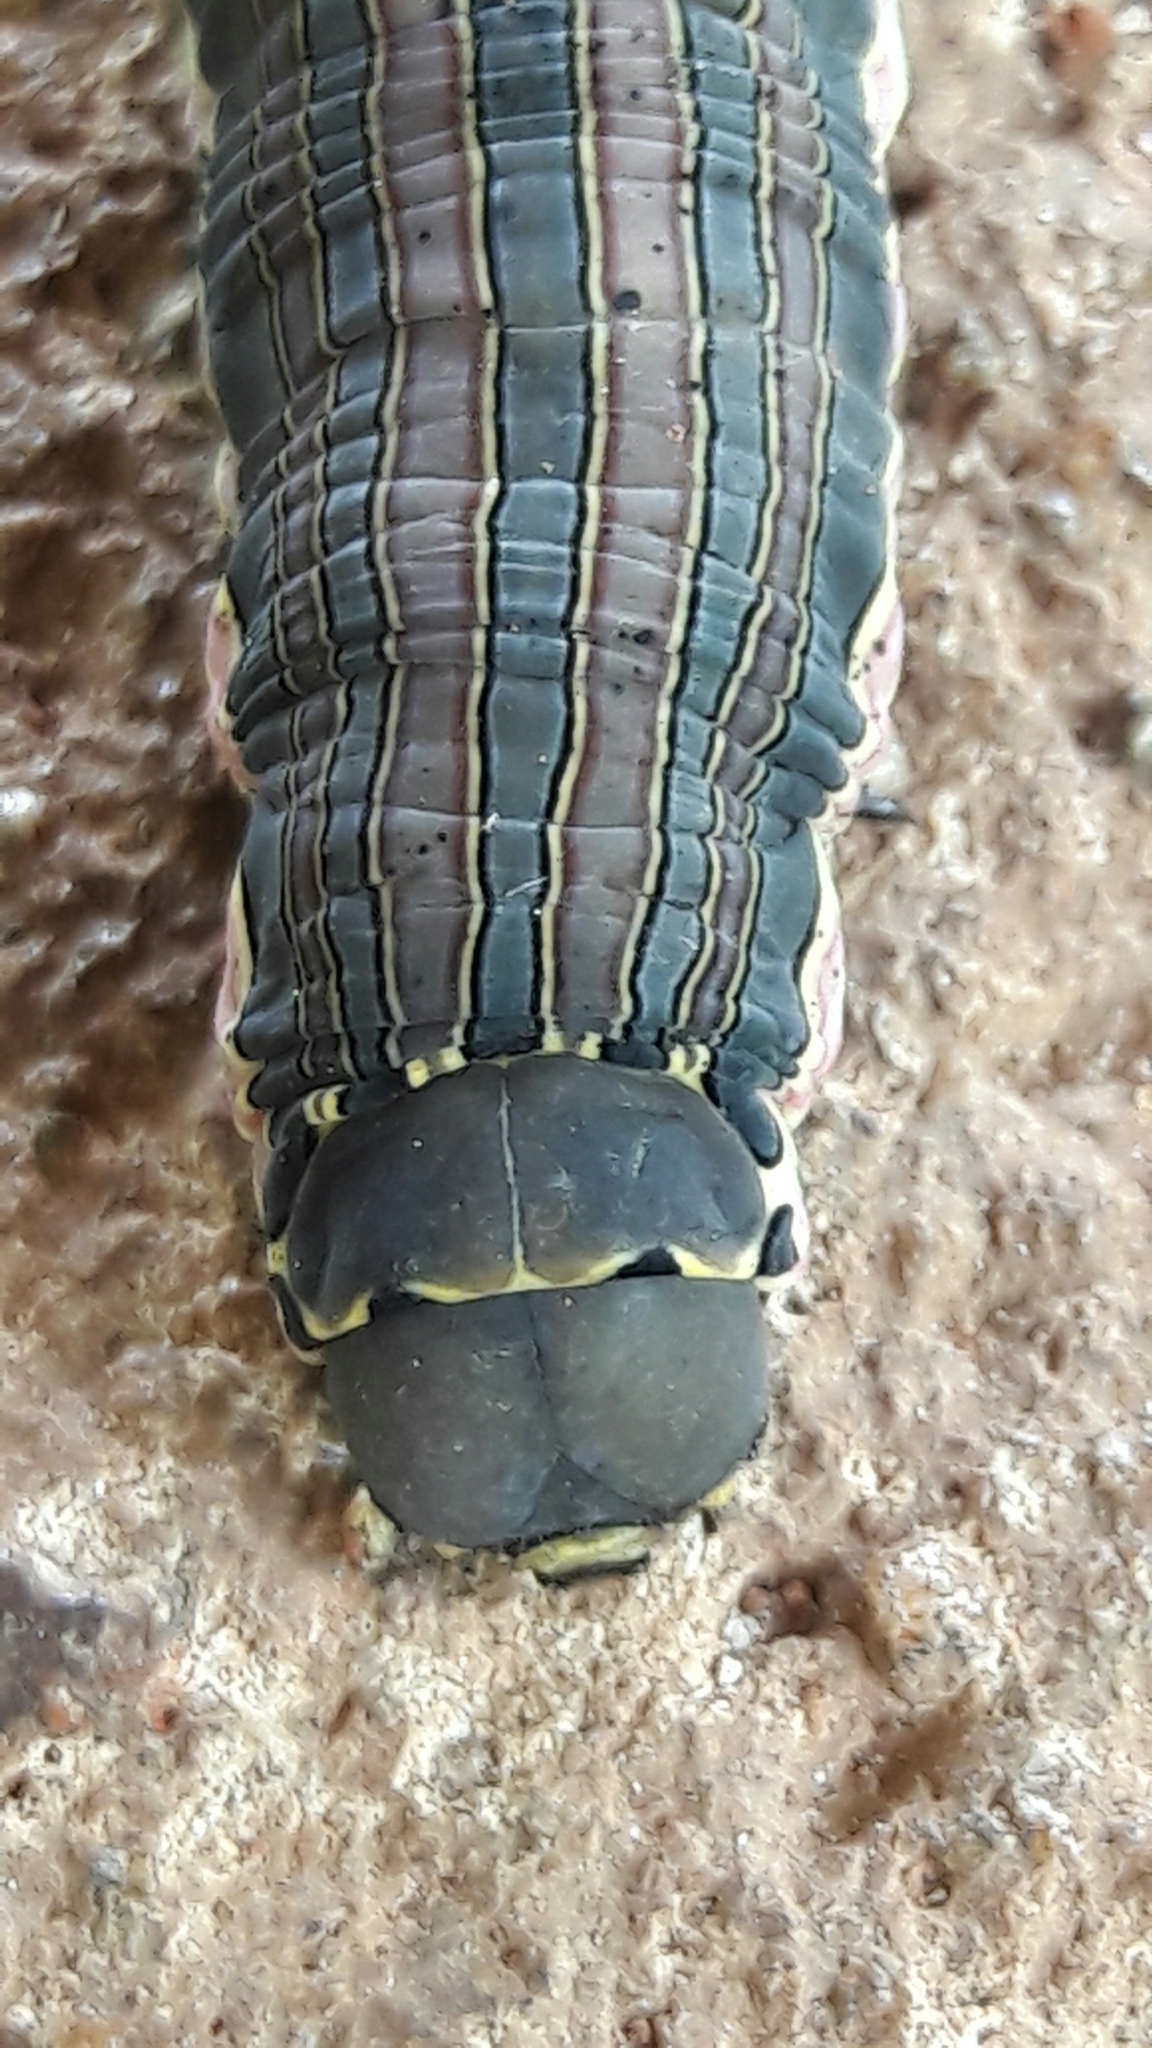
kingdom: Animalia
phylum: Arthropoda
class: Insecta
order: Lepidoptera
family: Sphingidae
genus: Isognathus
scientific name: Isognathus scyron
